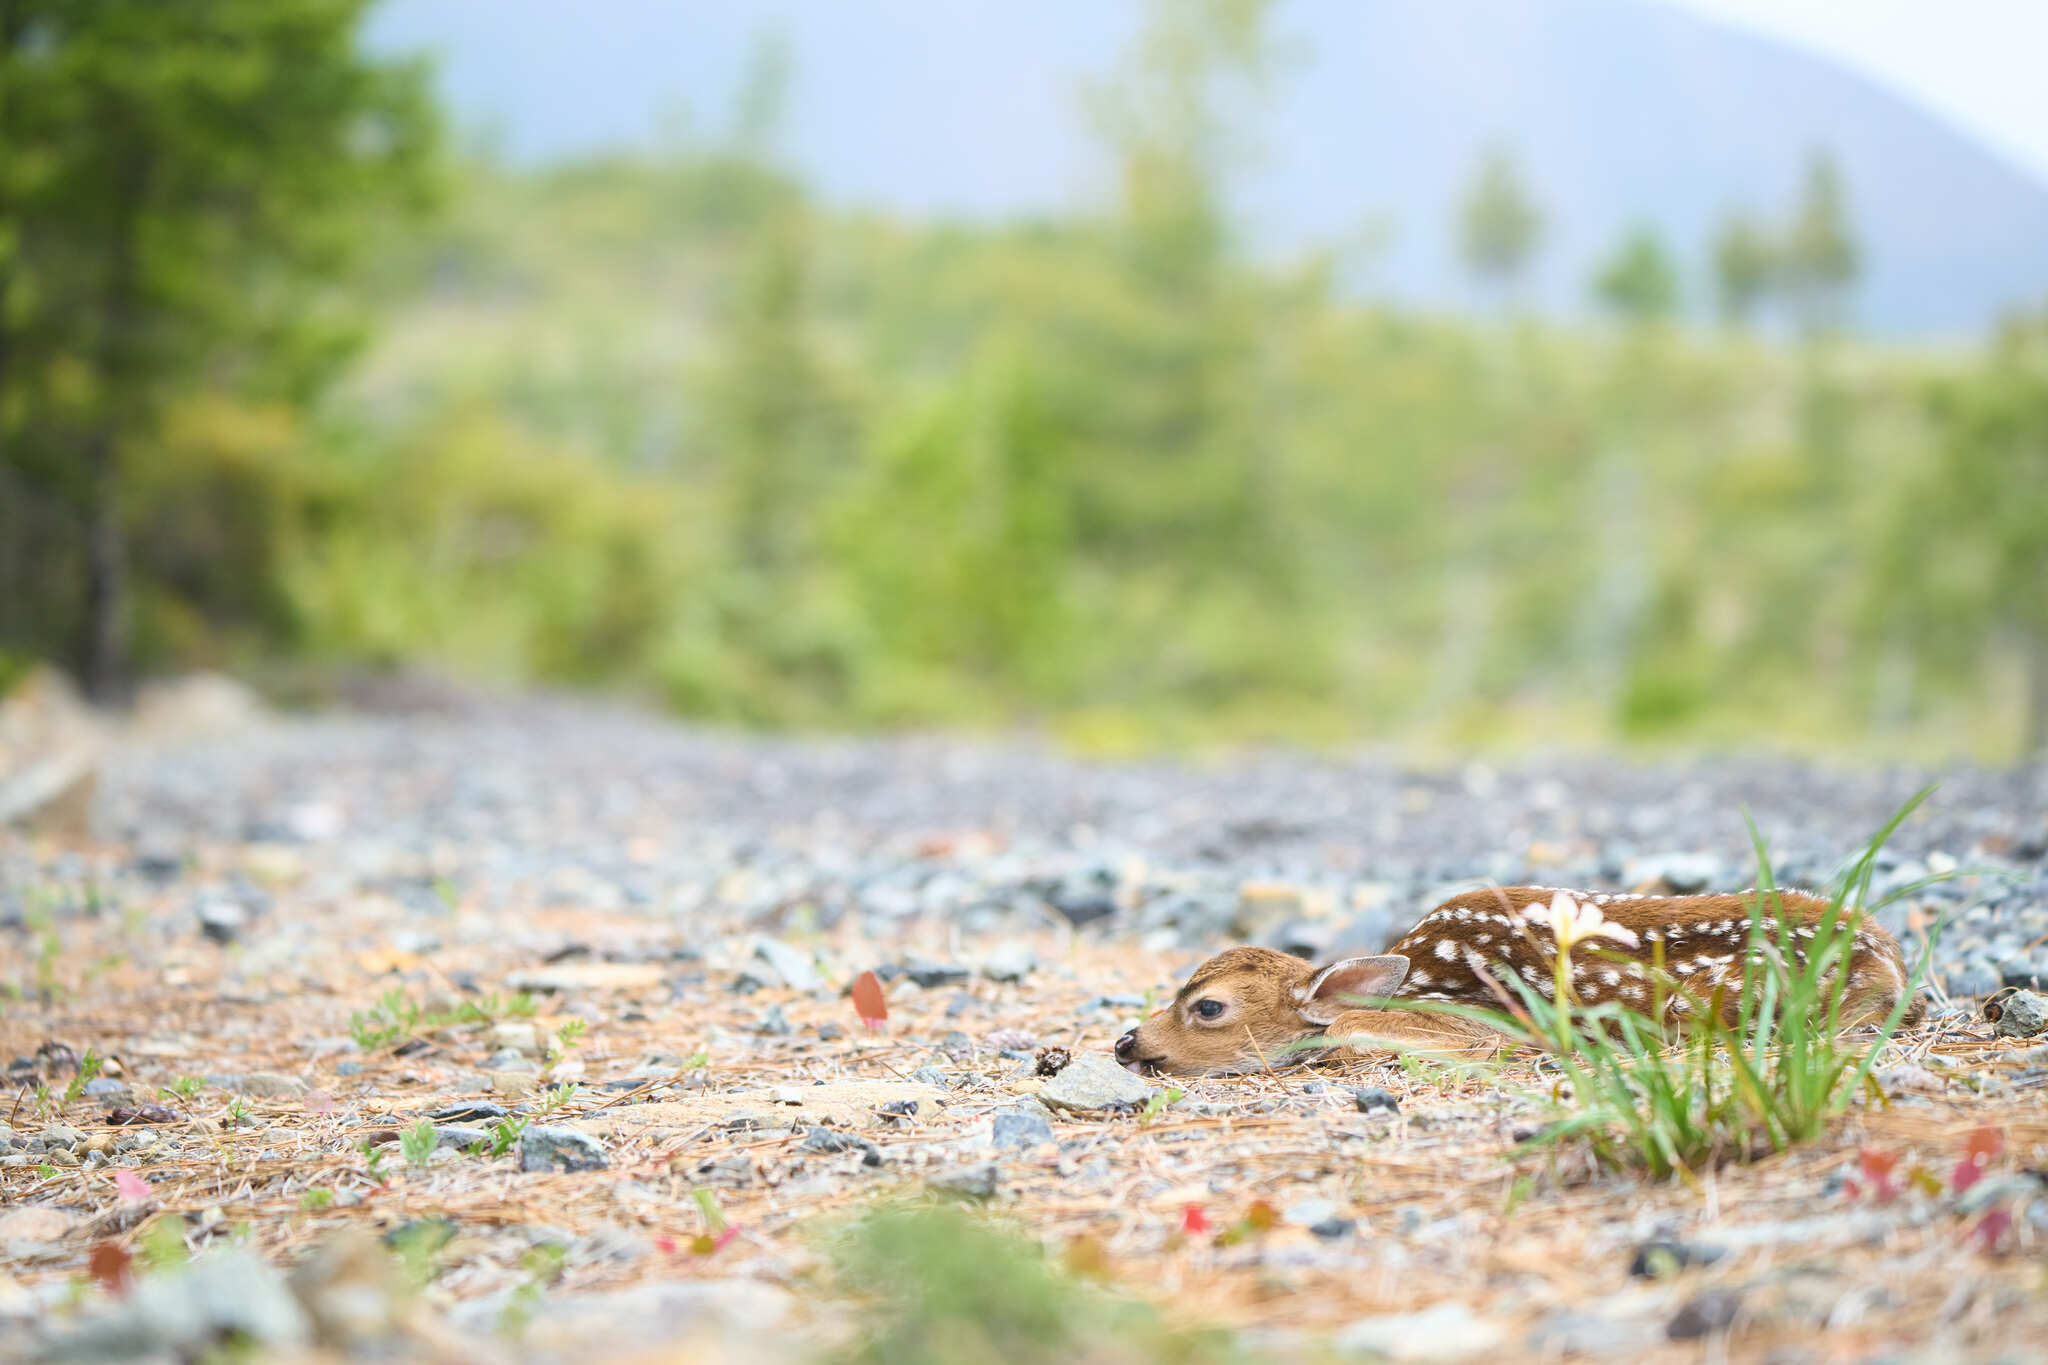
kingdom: Animalia
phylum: Chordata
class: Mammalia
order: Artiodactyla
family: Cervidae
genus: Odocoileus
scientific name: Odocoileus hemionus
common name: Mule deer
